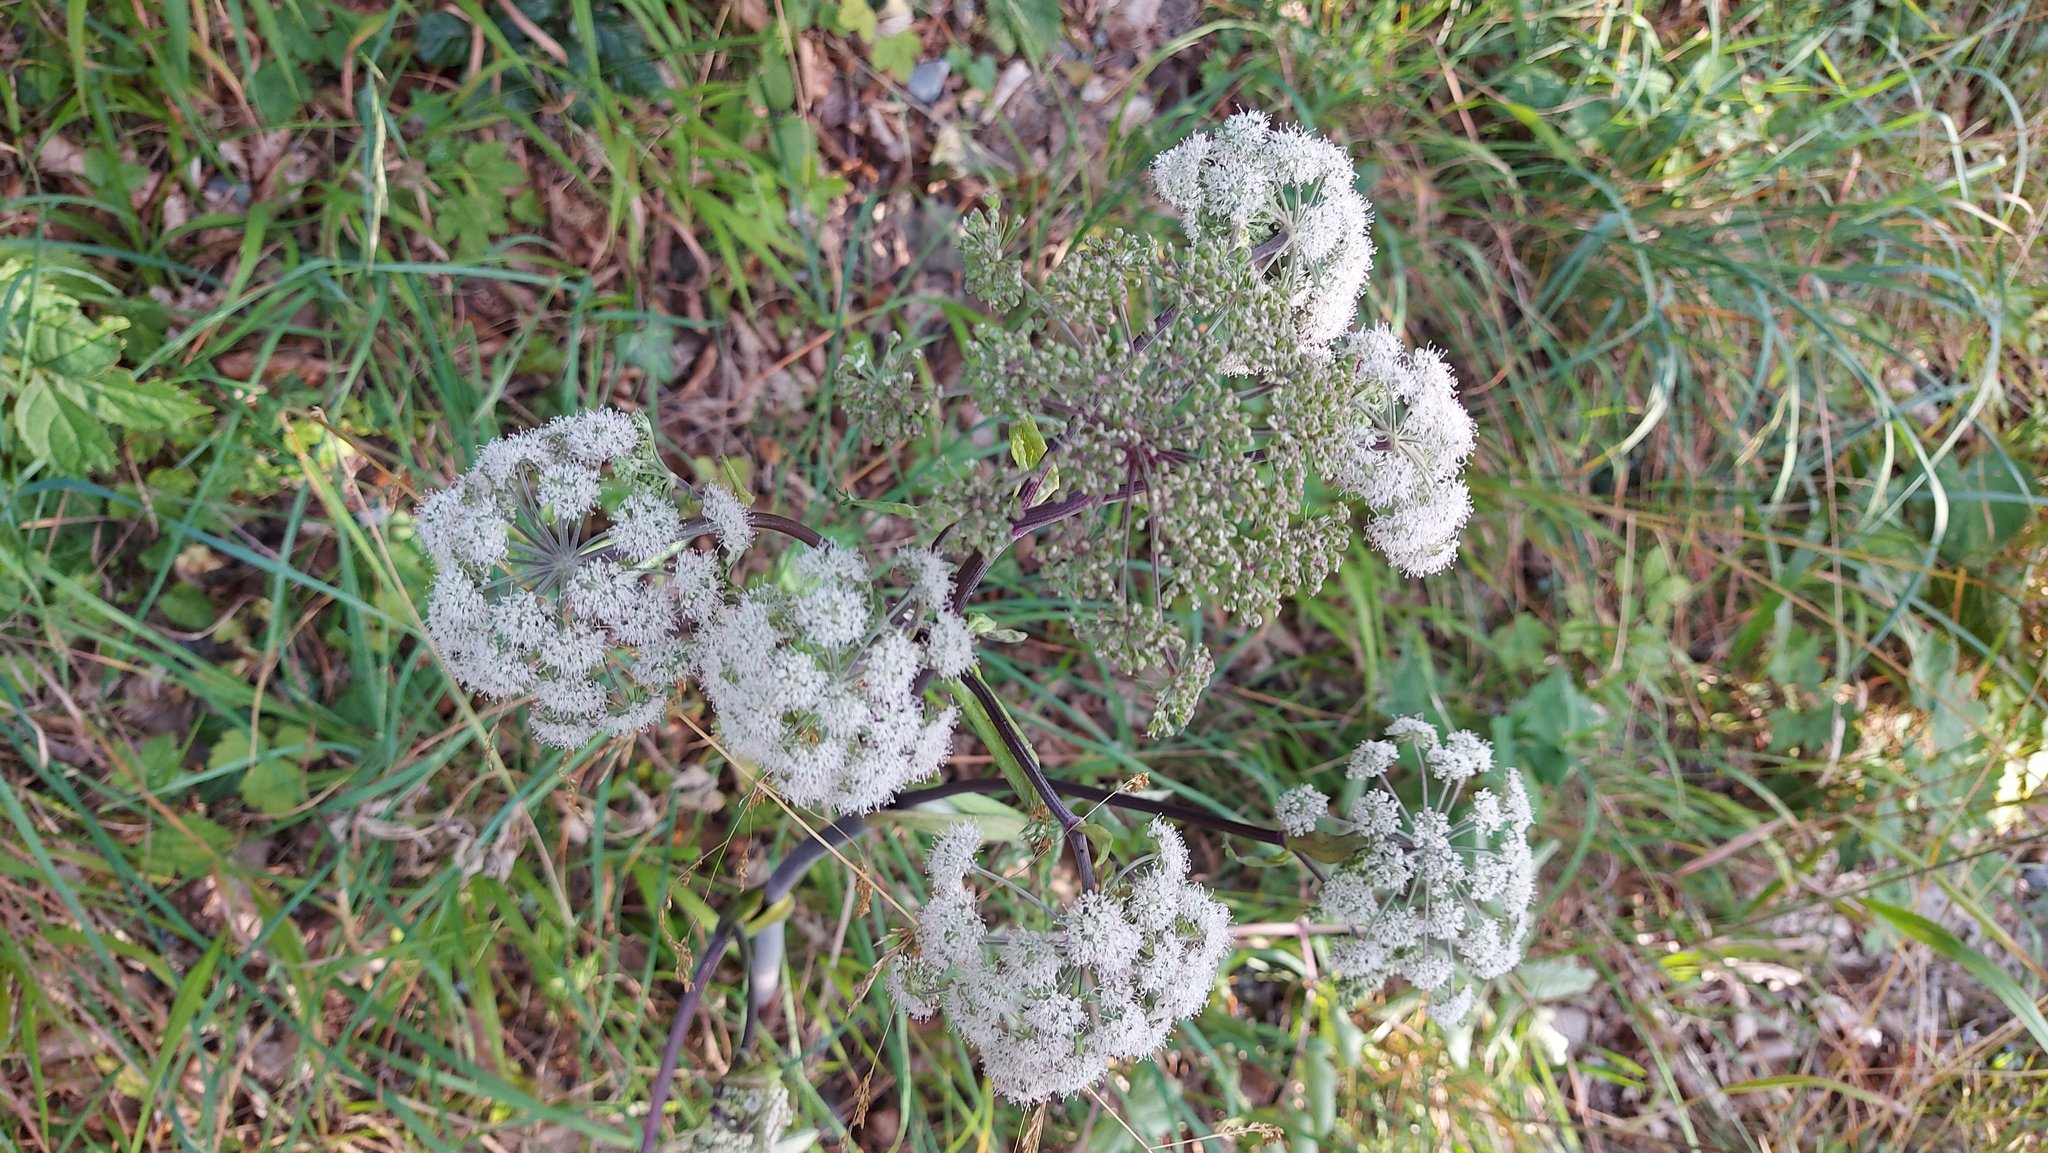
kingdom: Plantae
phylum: Tracheophyta
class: Magnoliopsida
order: Apiales
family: Apiaceae
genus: Angelica
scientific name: Angelica sylvestris
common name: Wild angelica
